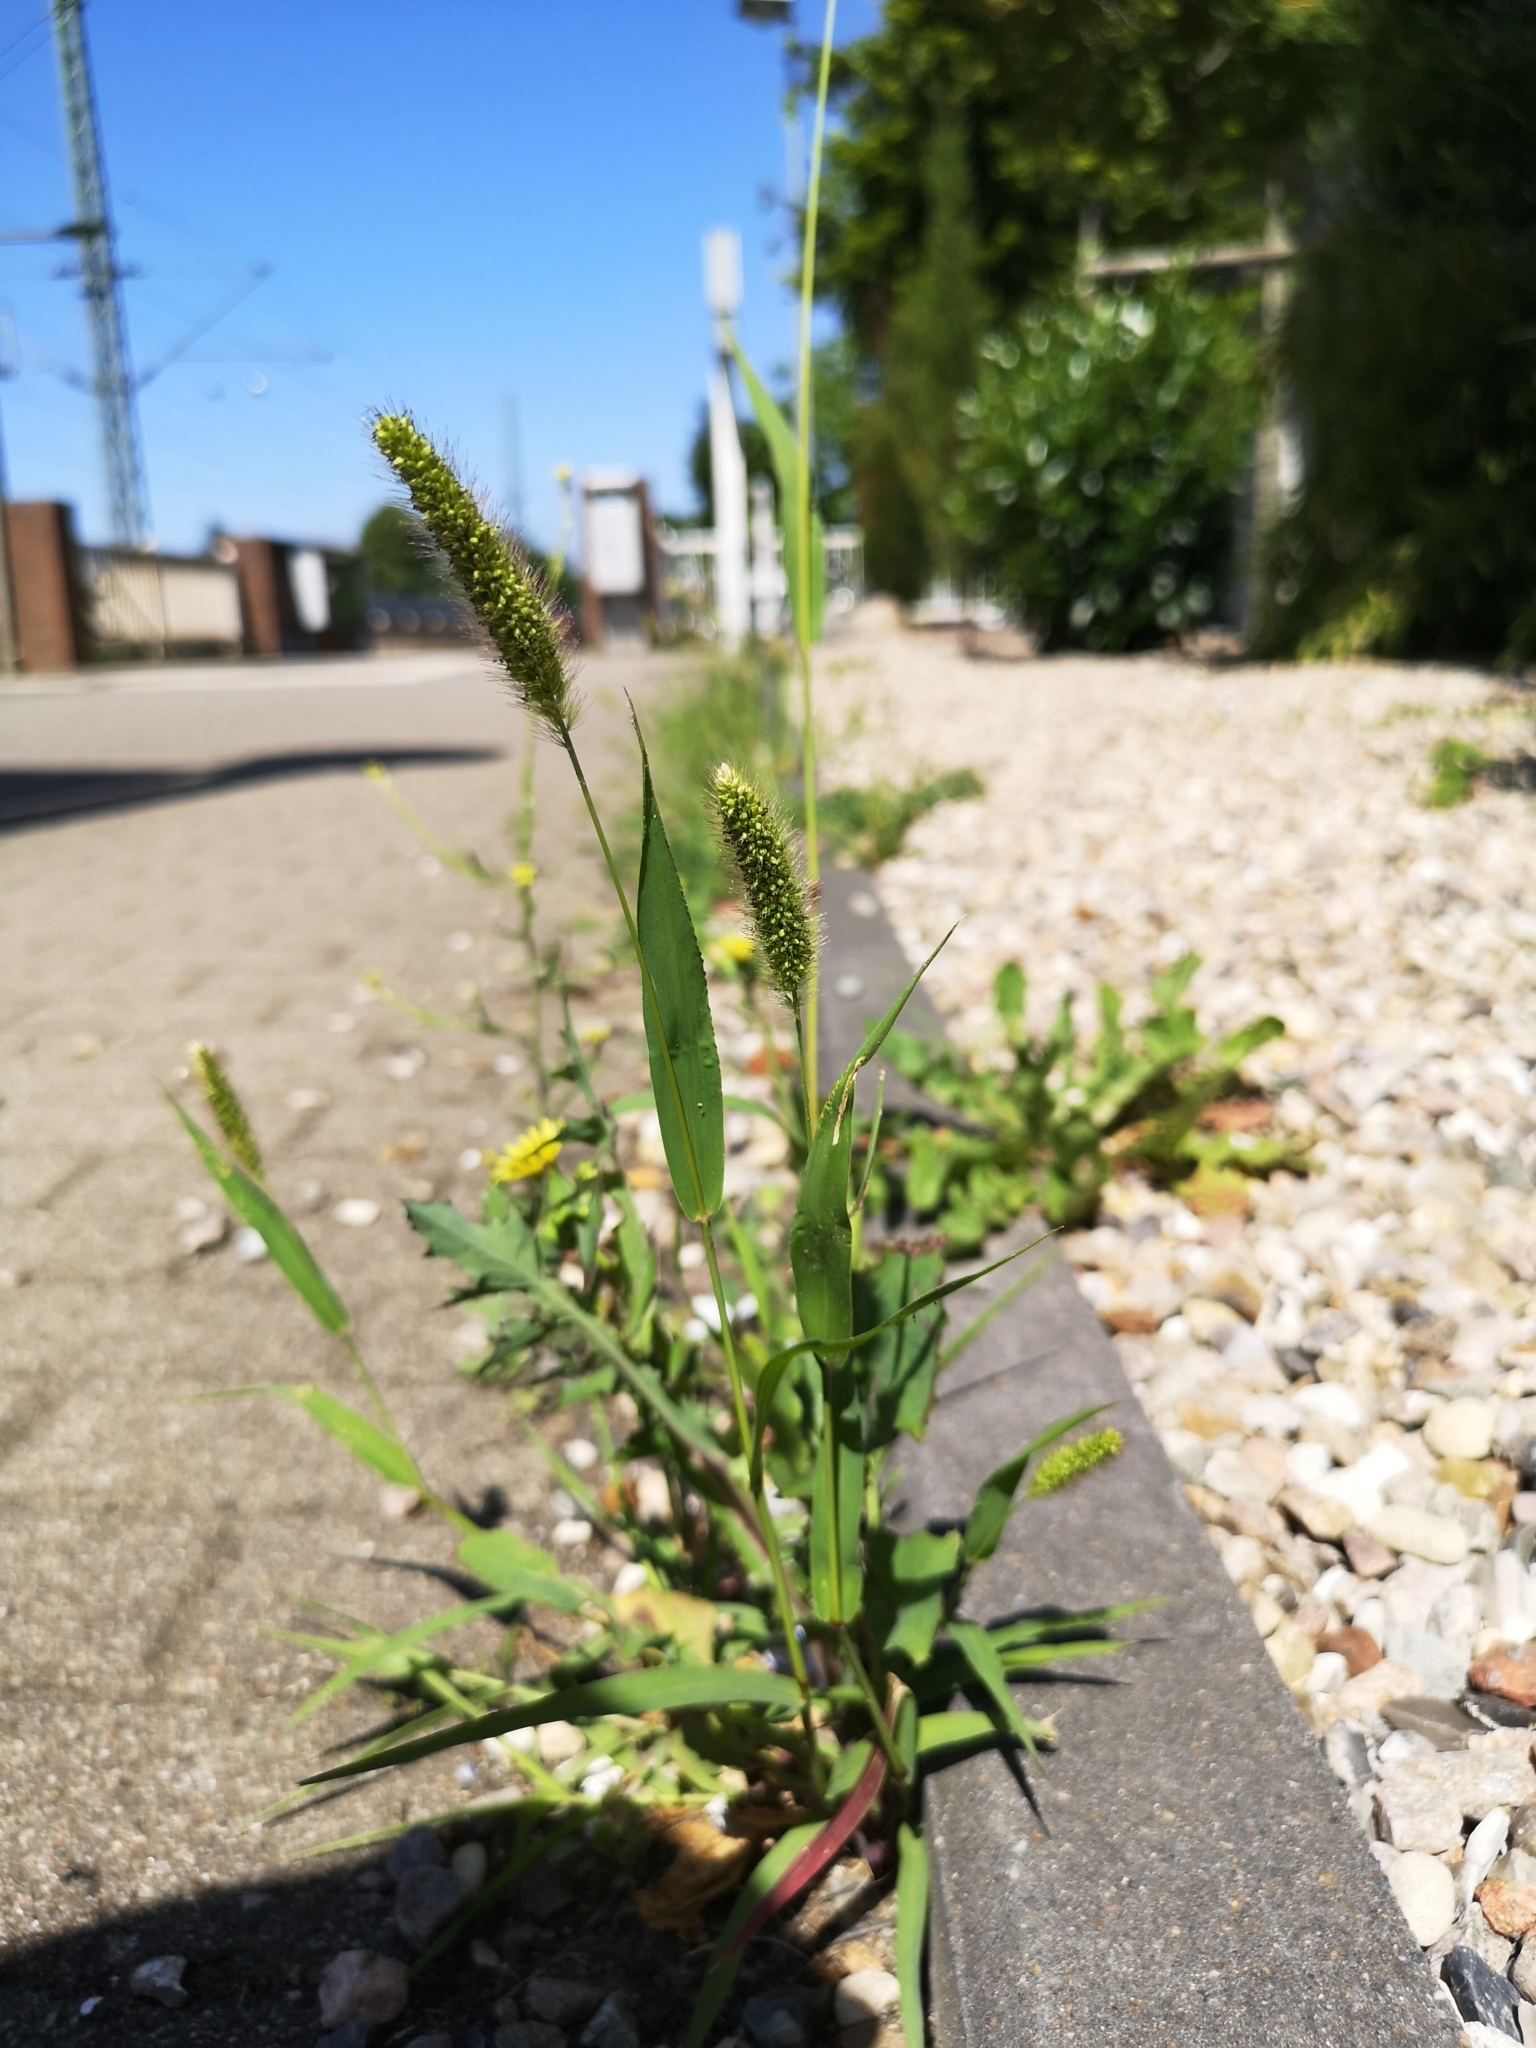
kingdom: Plantae
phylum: Tracheophyta
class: Liliopsida
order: Poales
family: Poaceae
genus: Setaria
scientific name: Setaria pumila
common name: Yellow bristle-grass
